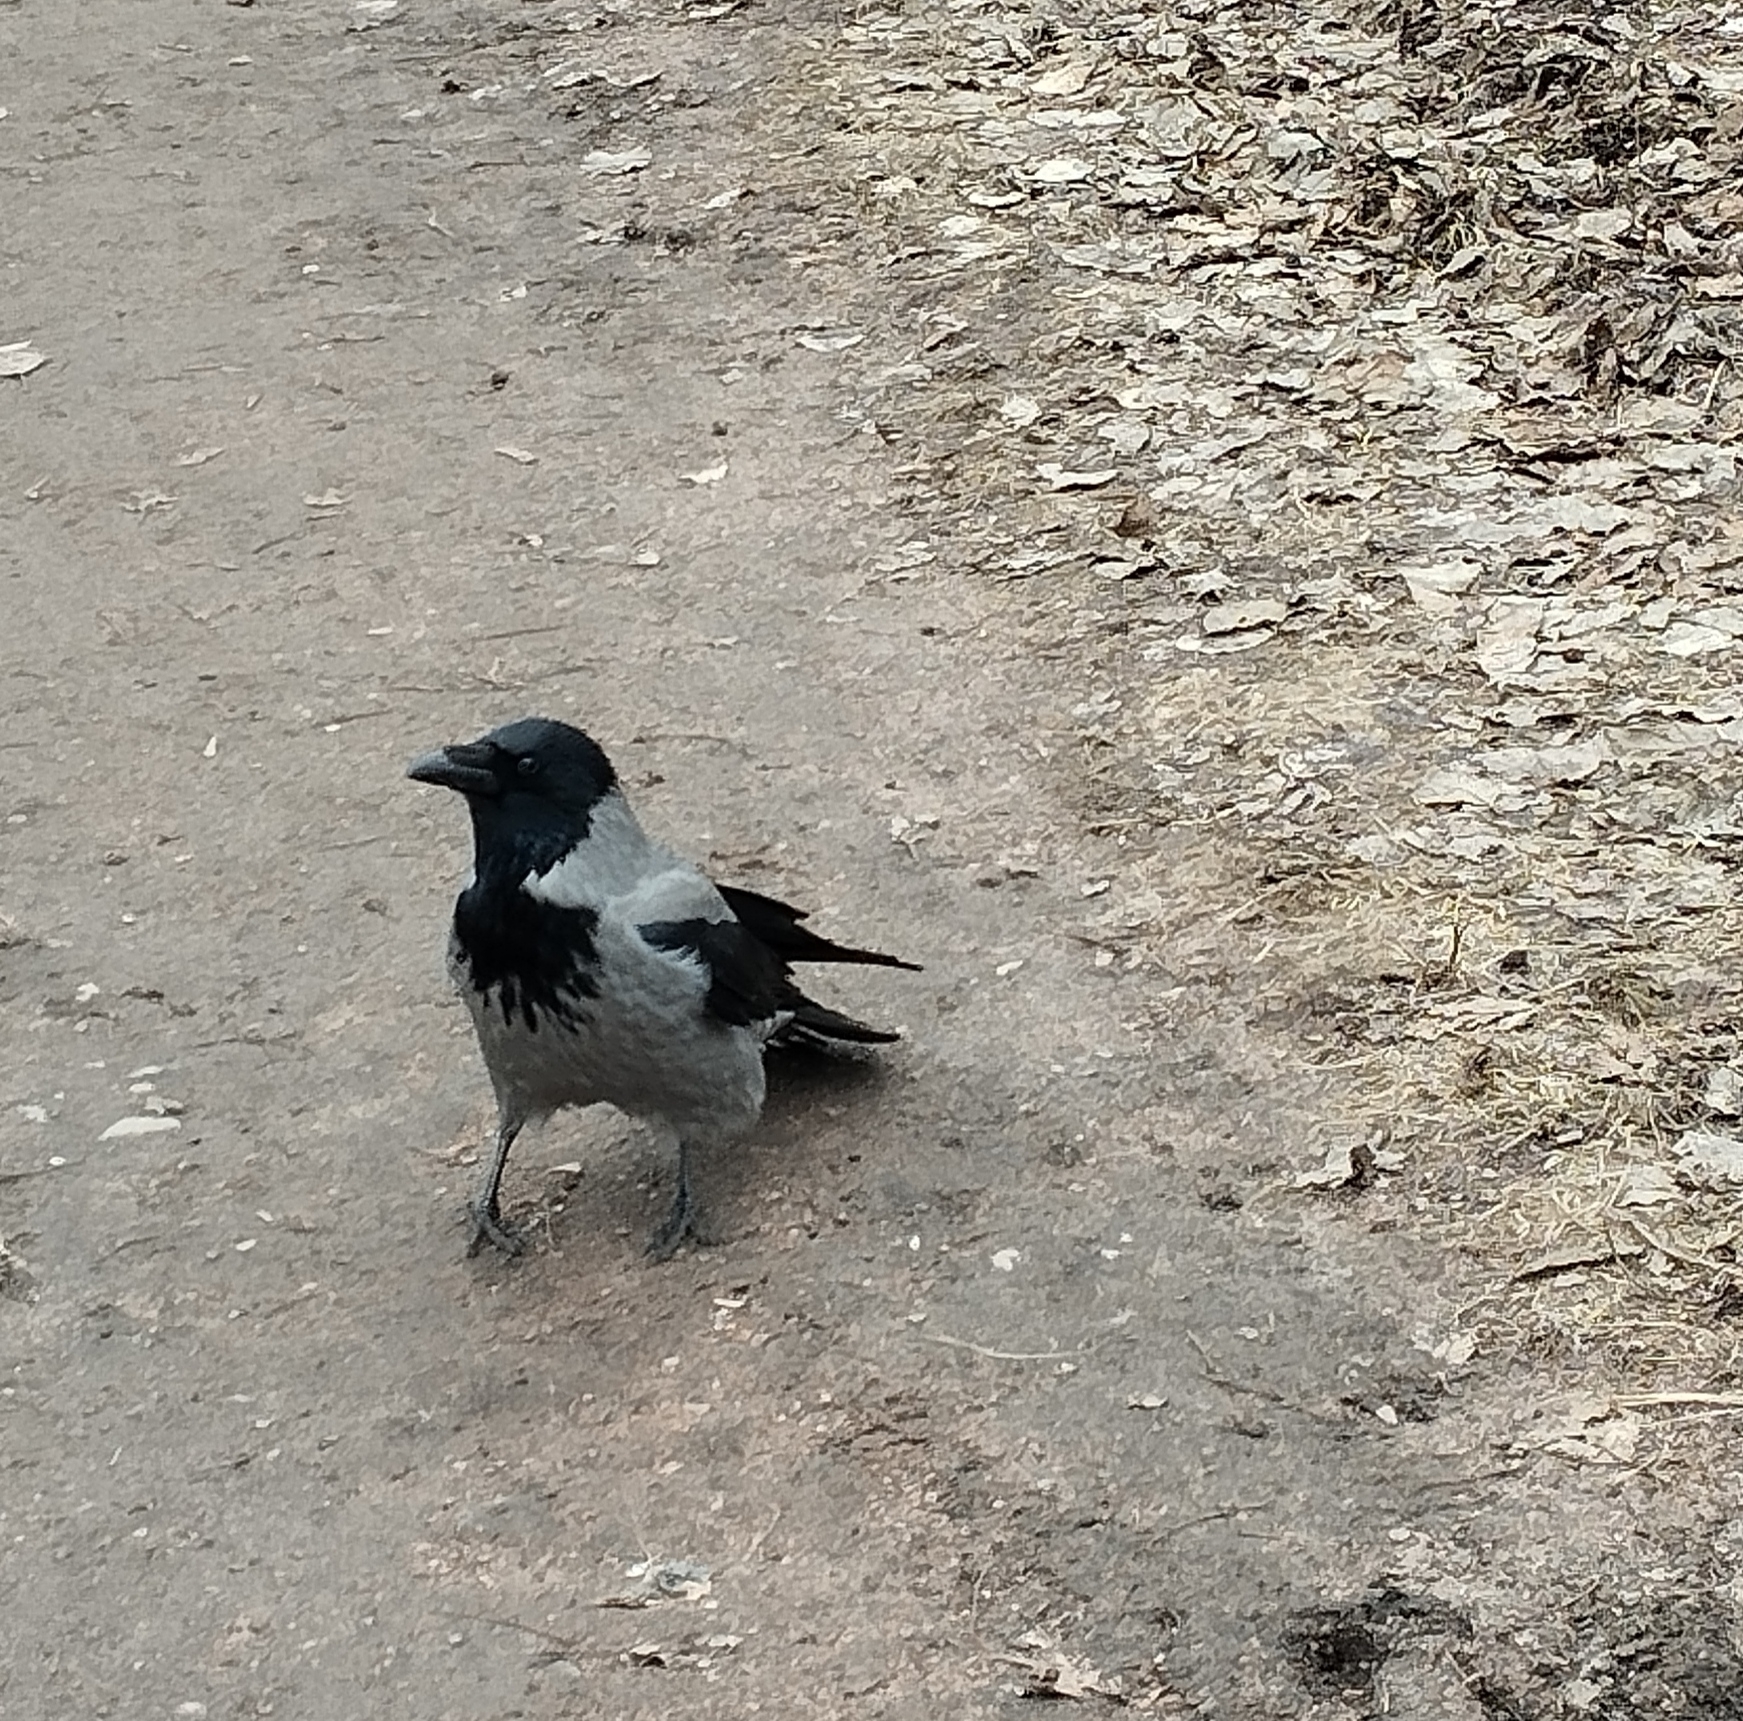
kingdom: Animalia
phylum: Chordata
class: Aves
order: Passeriformes
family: Corvidae
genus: Corvus
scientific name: Corvus cornix
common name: Hooded crow
